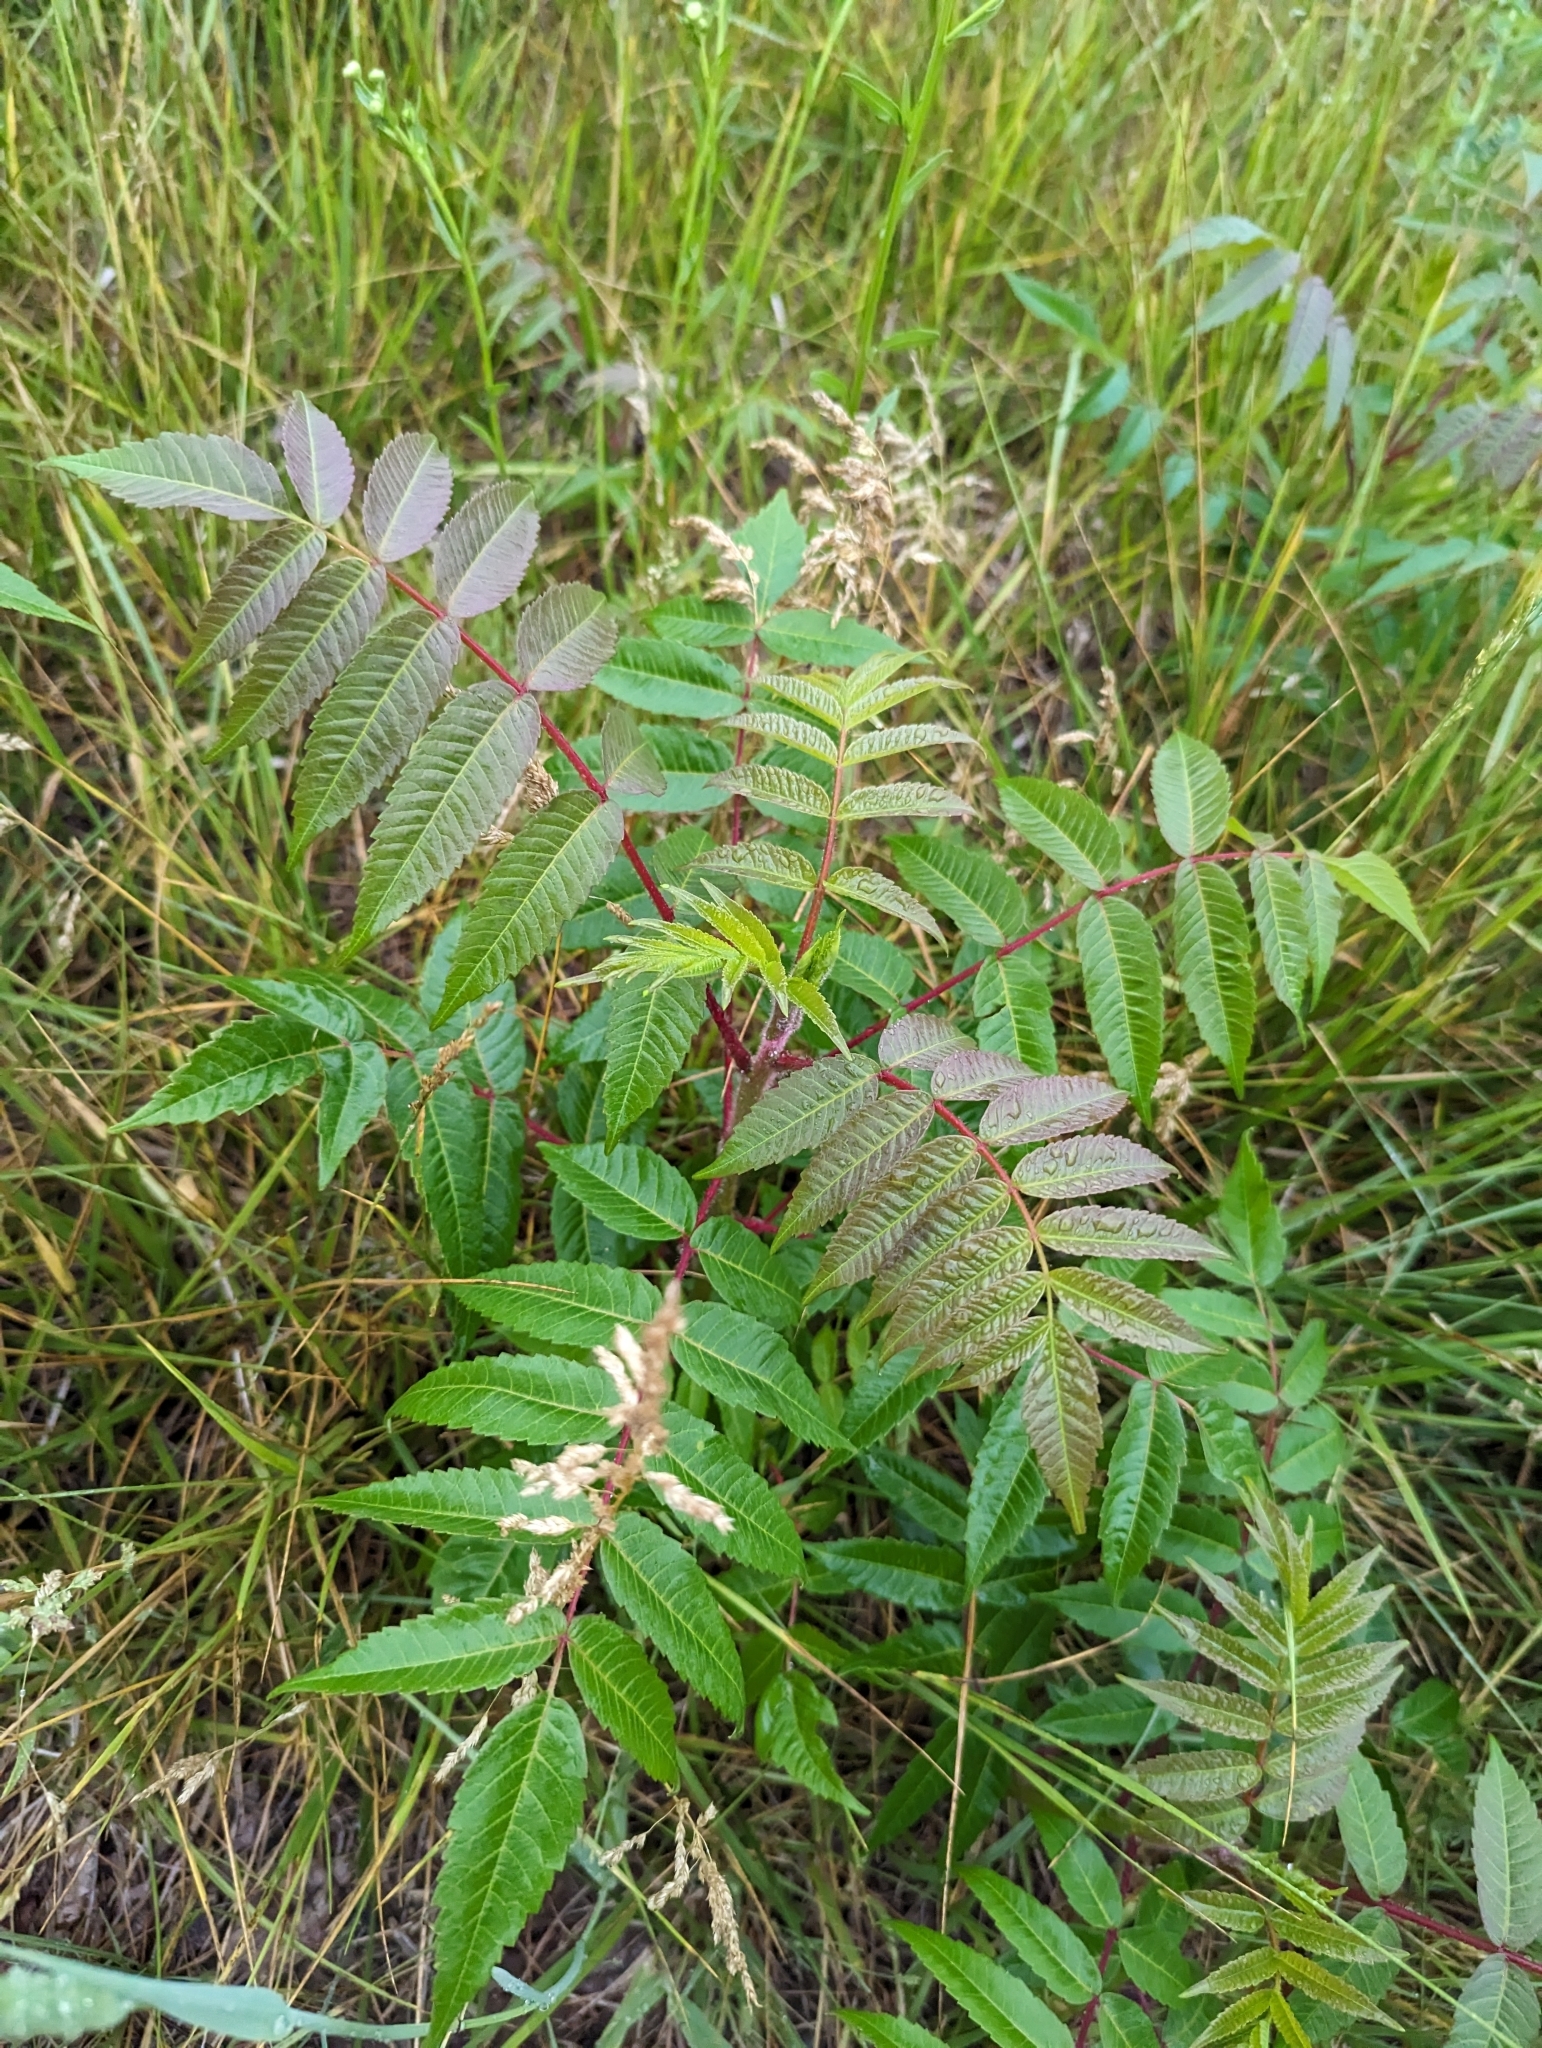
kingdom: Plantae
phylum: Tracheophyta
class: Magnoliopsida
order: Sapindales
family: Anacardiaceae
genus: Rhus
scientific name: Rhus typhina
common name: Staghorn sumac
